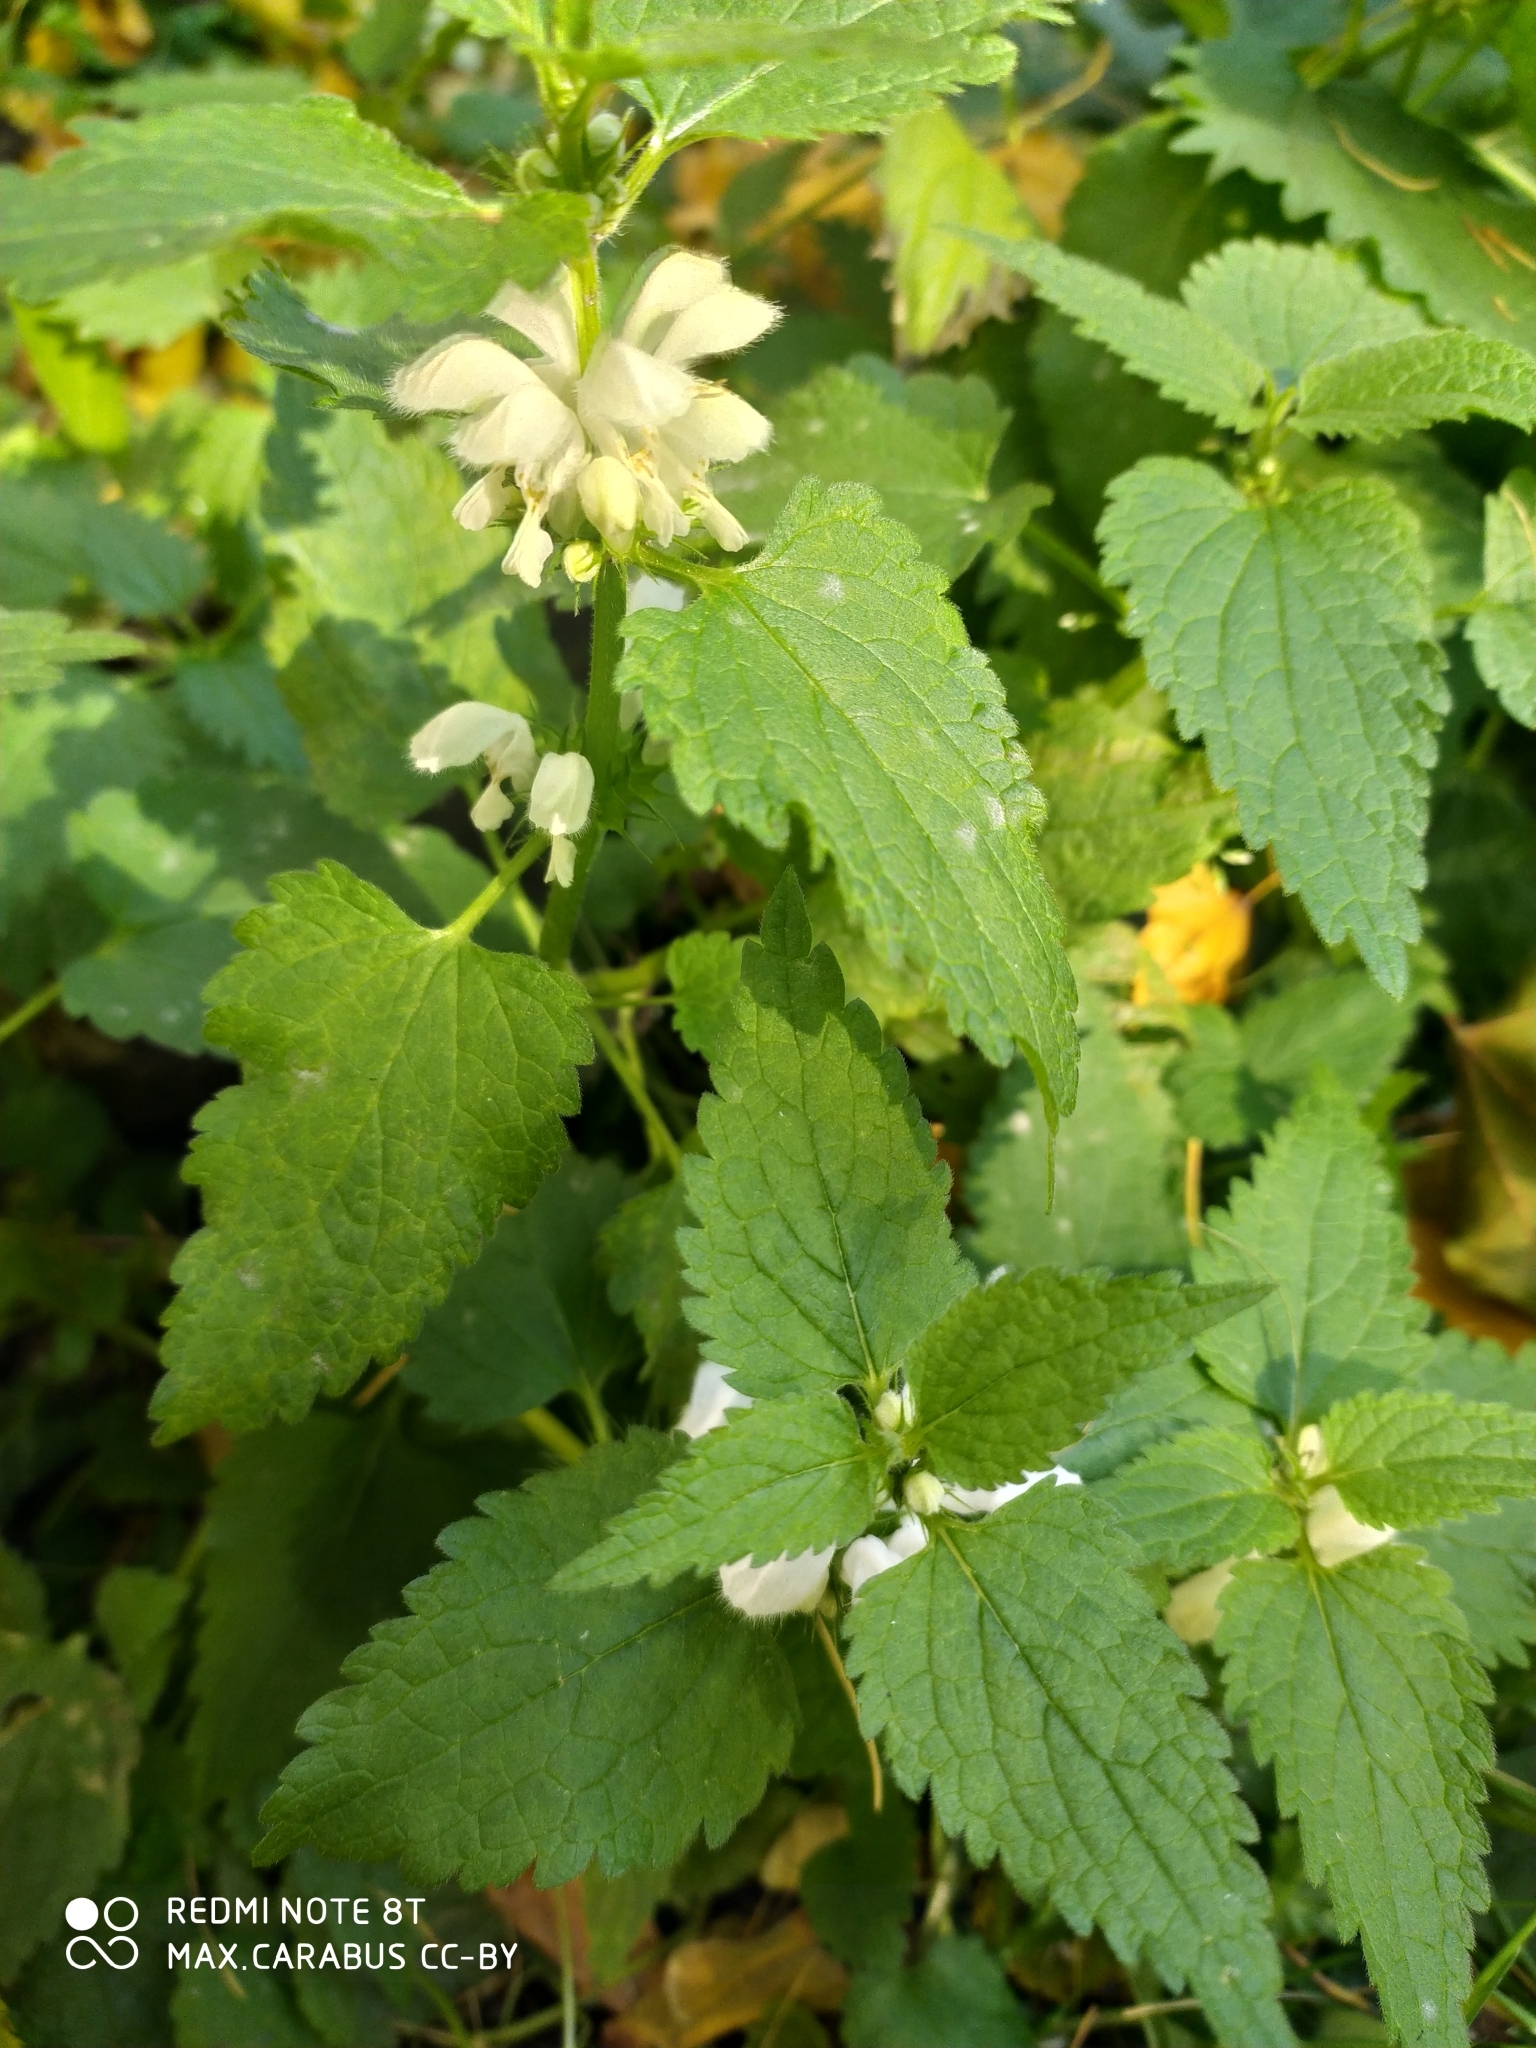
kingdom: Plantae
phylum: Tracheophyta
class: Magnoliopsida
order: Lamiales
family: Lamiaceae
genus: Lamium
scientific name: Lamium album
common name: White dead-nettle
